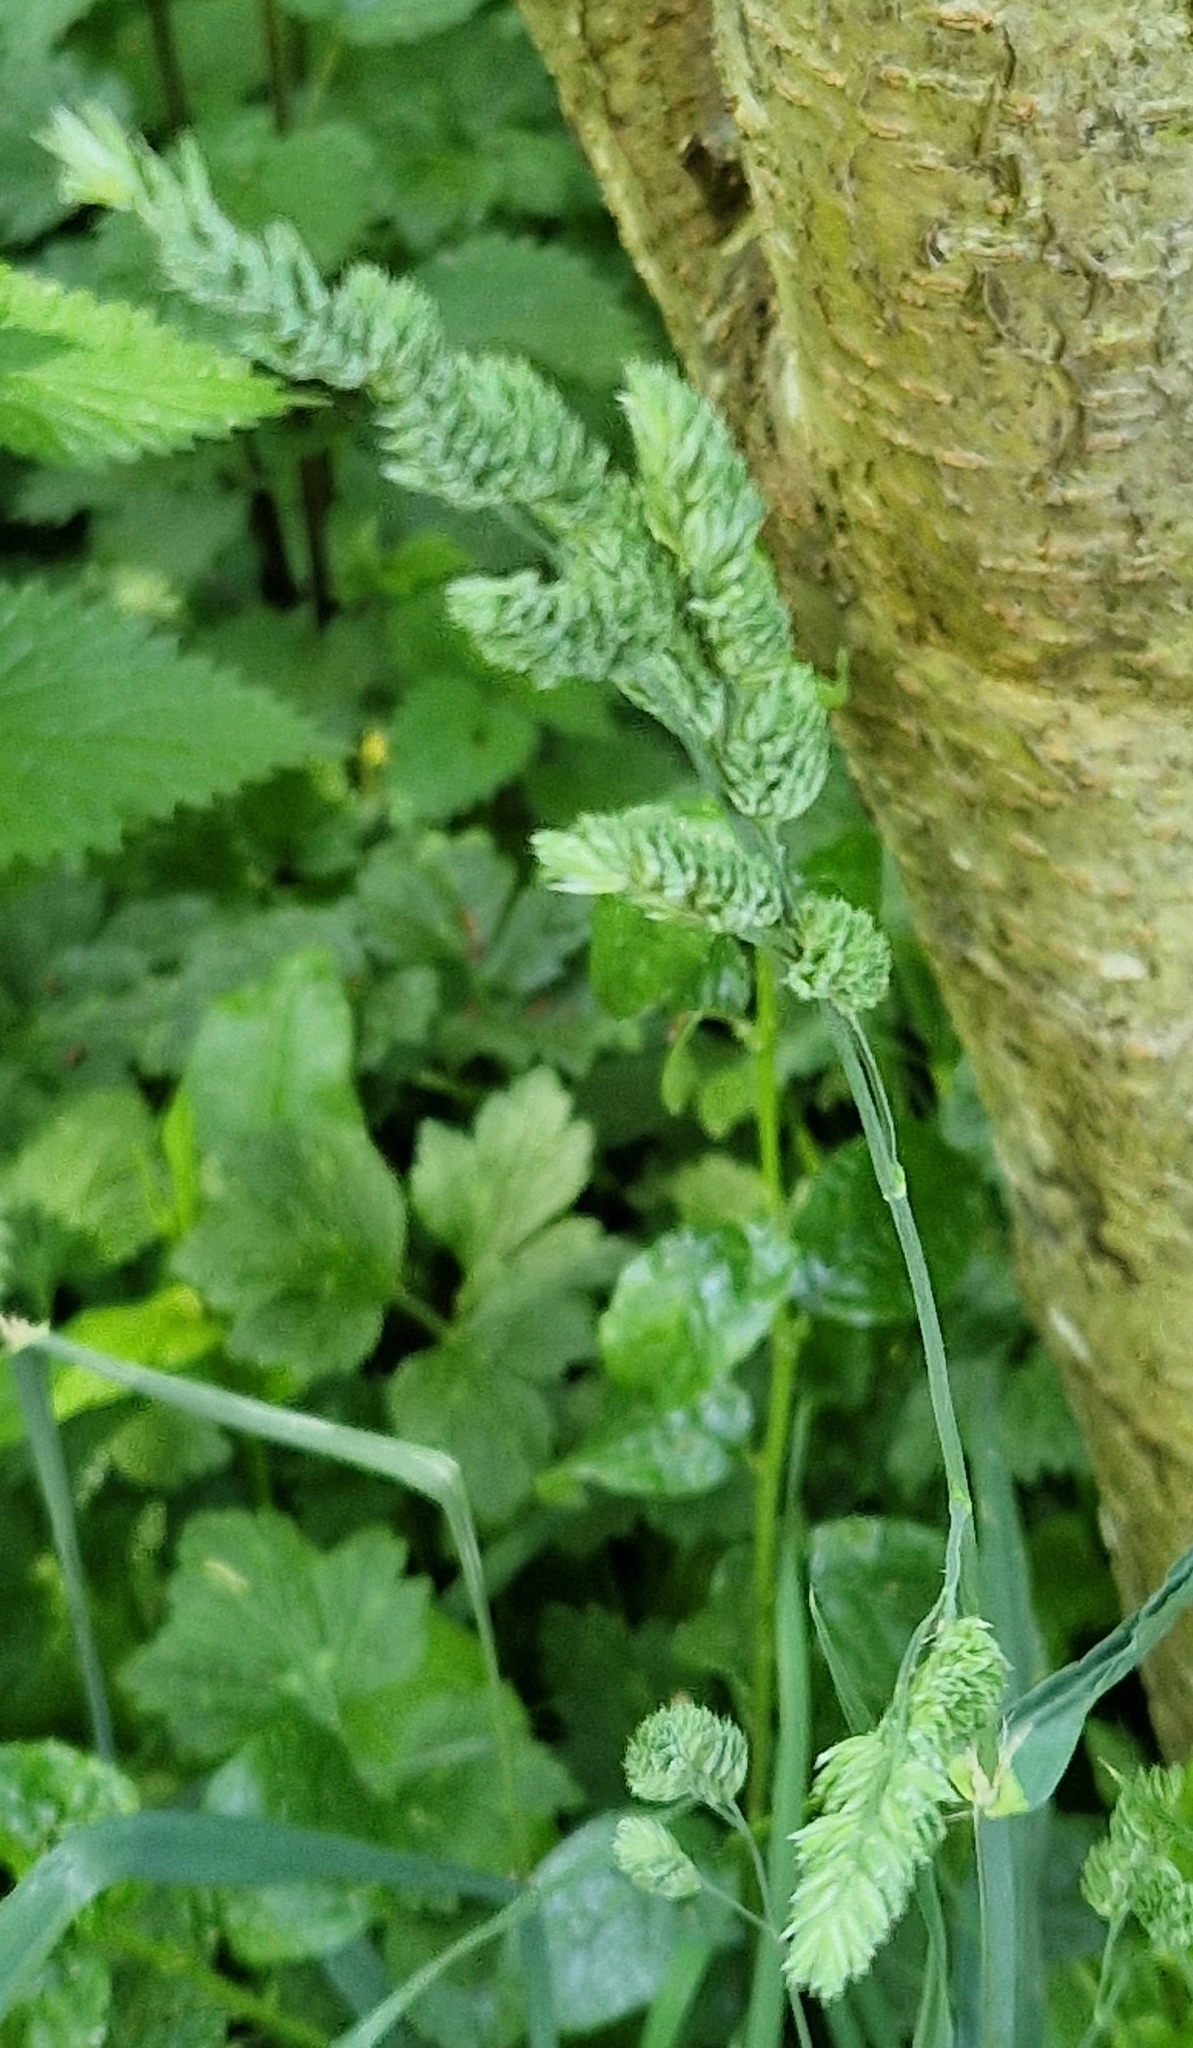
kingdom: Plantae
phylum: Tracheophyta
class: Liliopsida
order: Poales
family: Poaceae
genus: Dactylis
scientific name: Dactylis glomerata
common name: Orchardgrass
